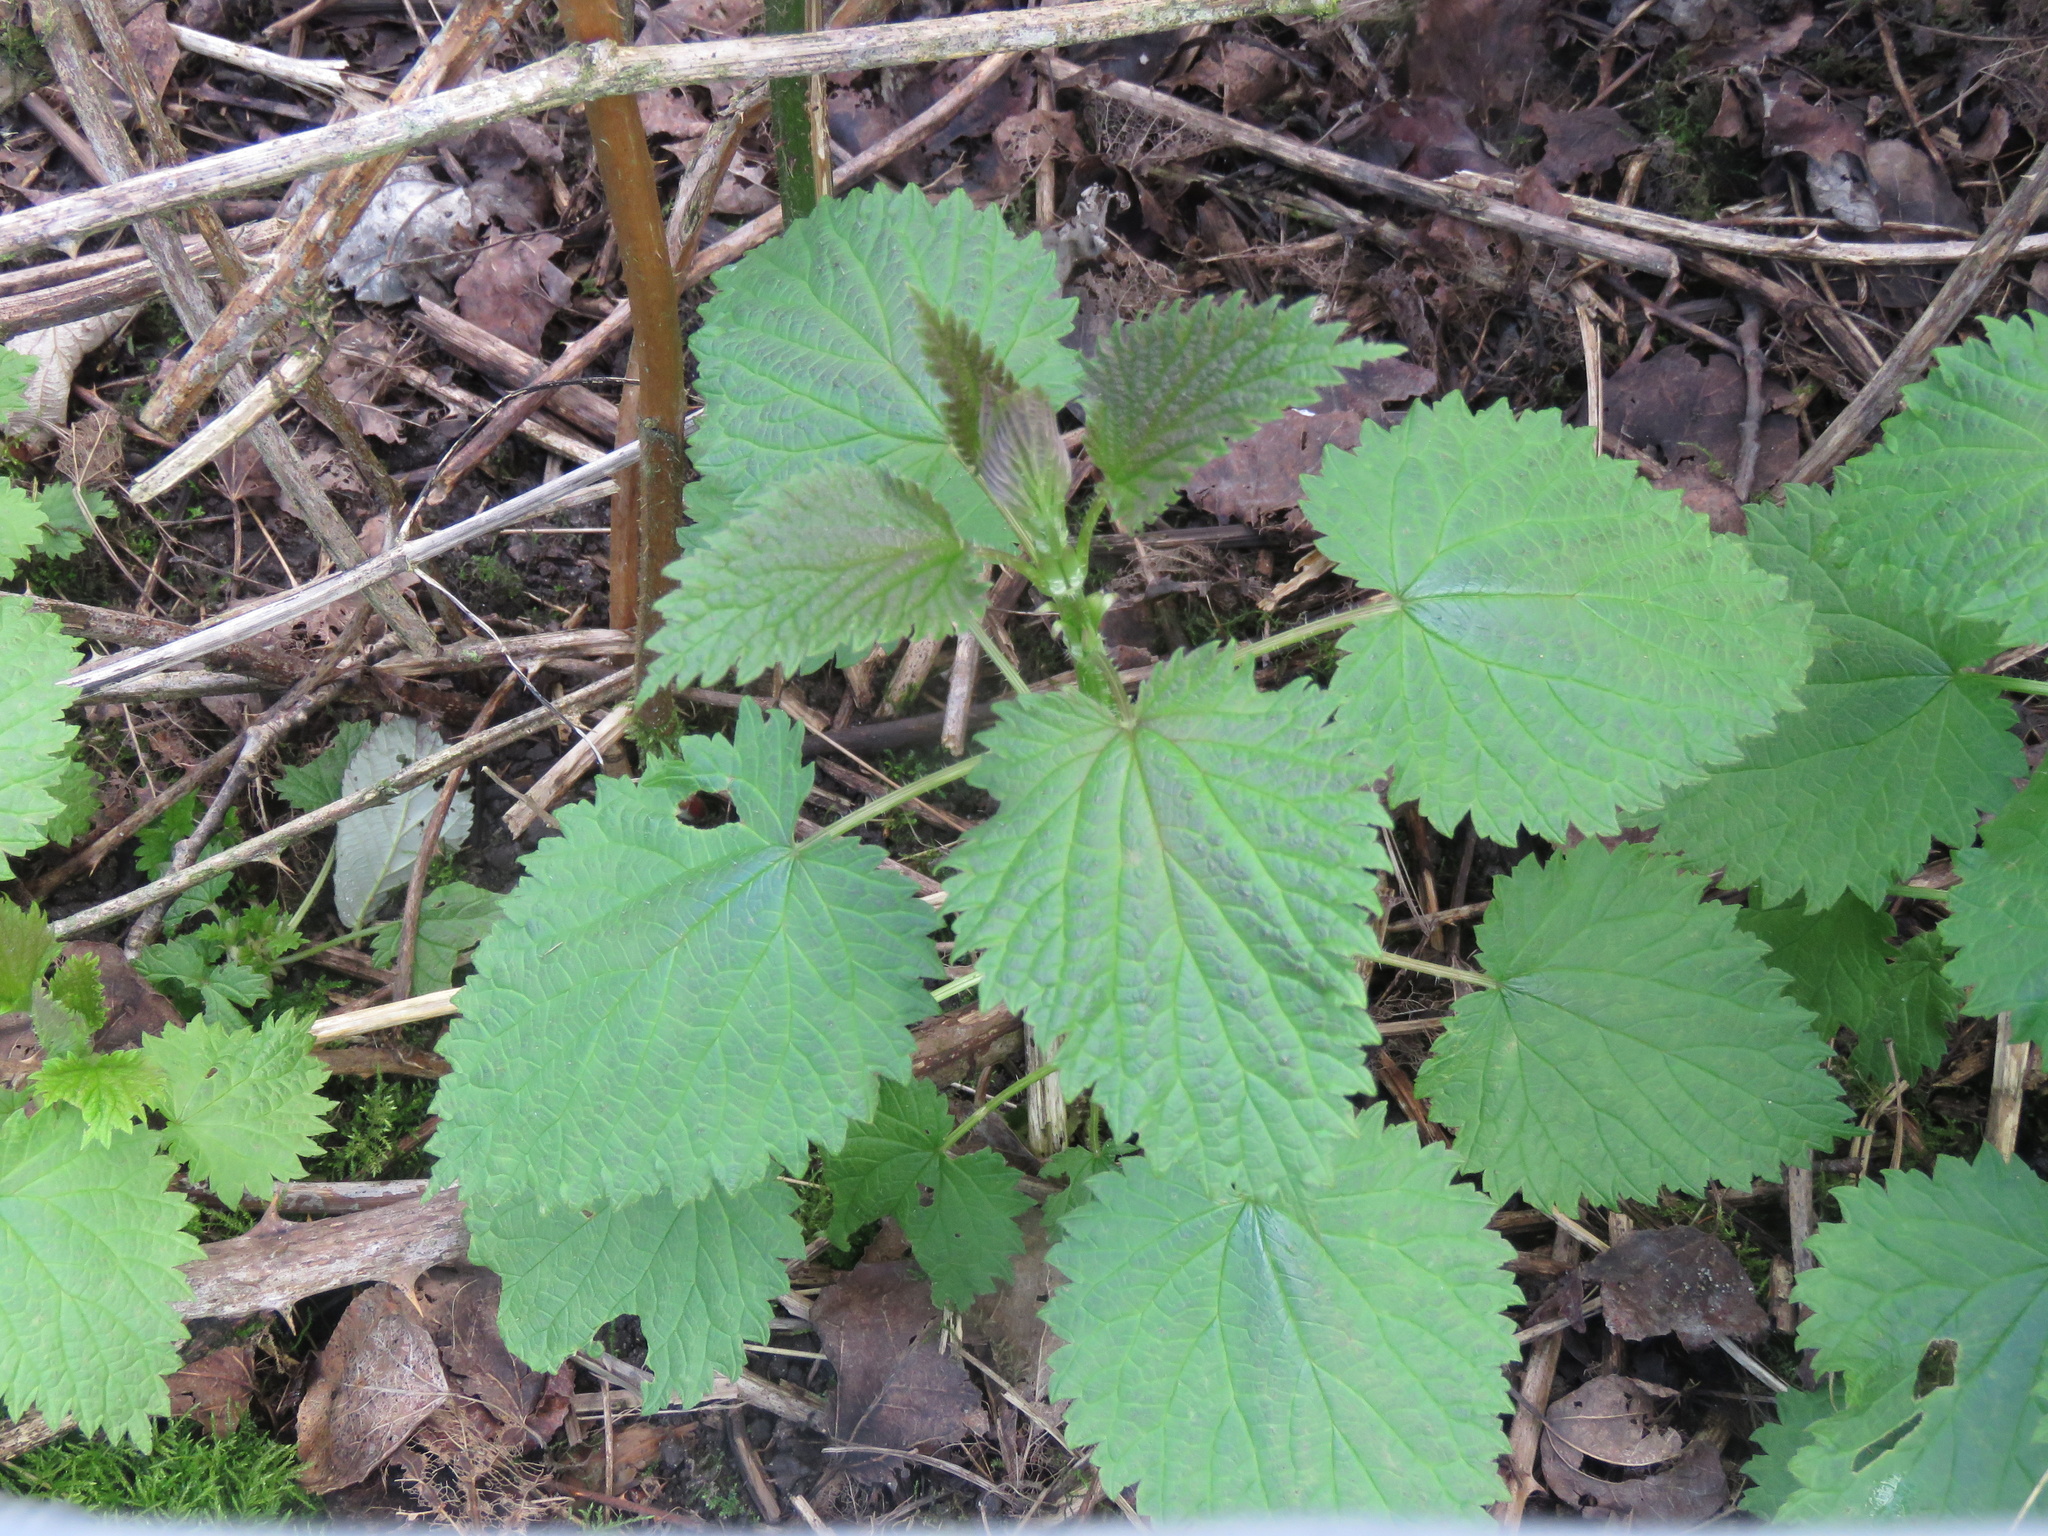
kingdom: Plantae
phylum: Tracheophyta
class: Magnoliopsida
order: Rosales
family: Urticaceae
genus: Urtica
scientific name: Urtica dioica
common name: Common nettle
